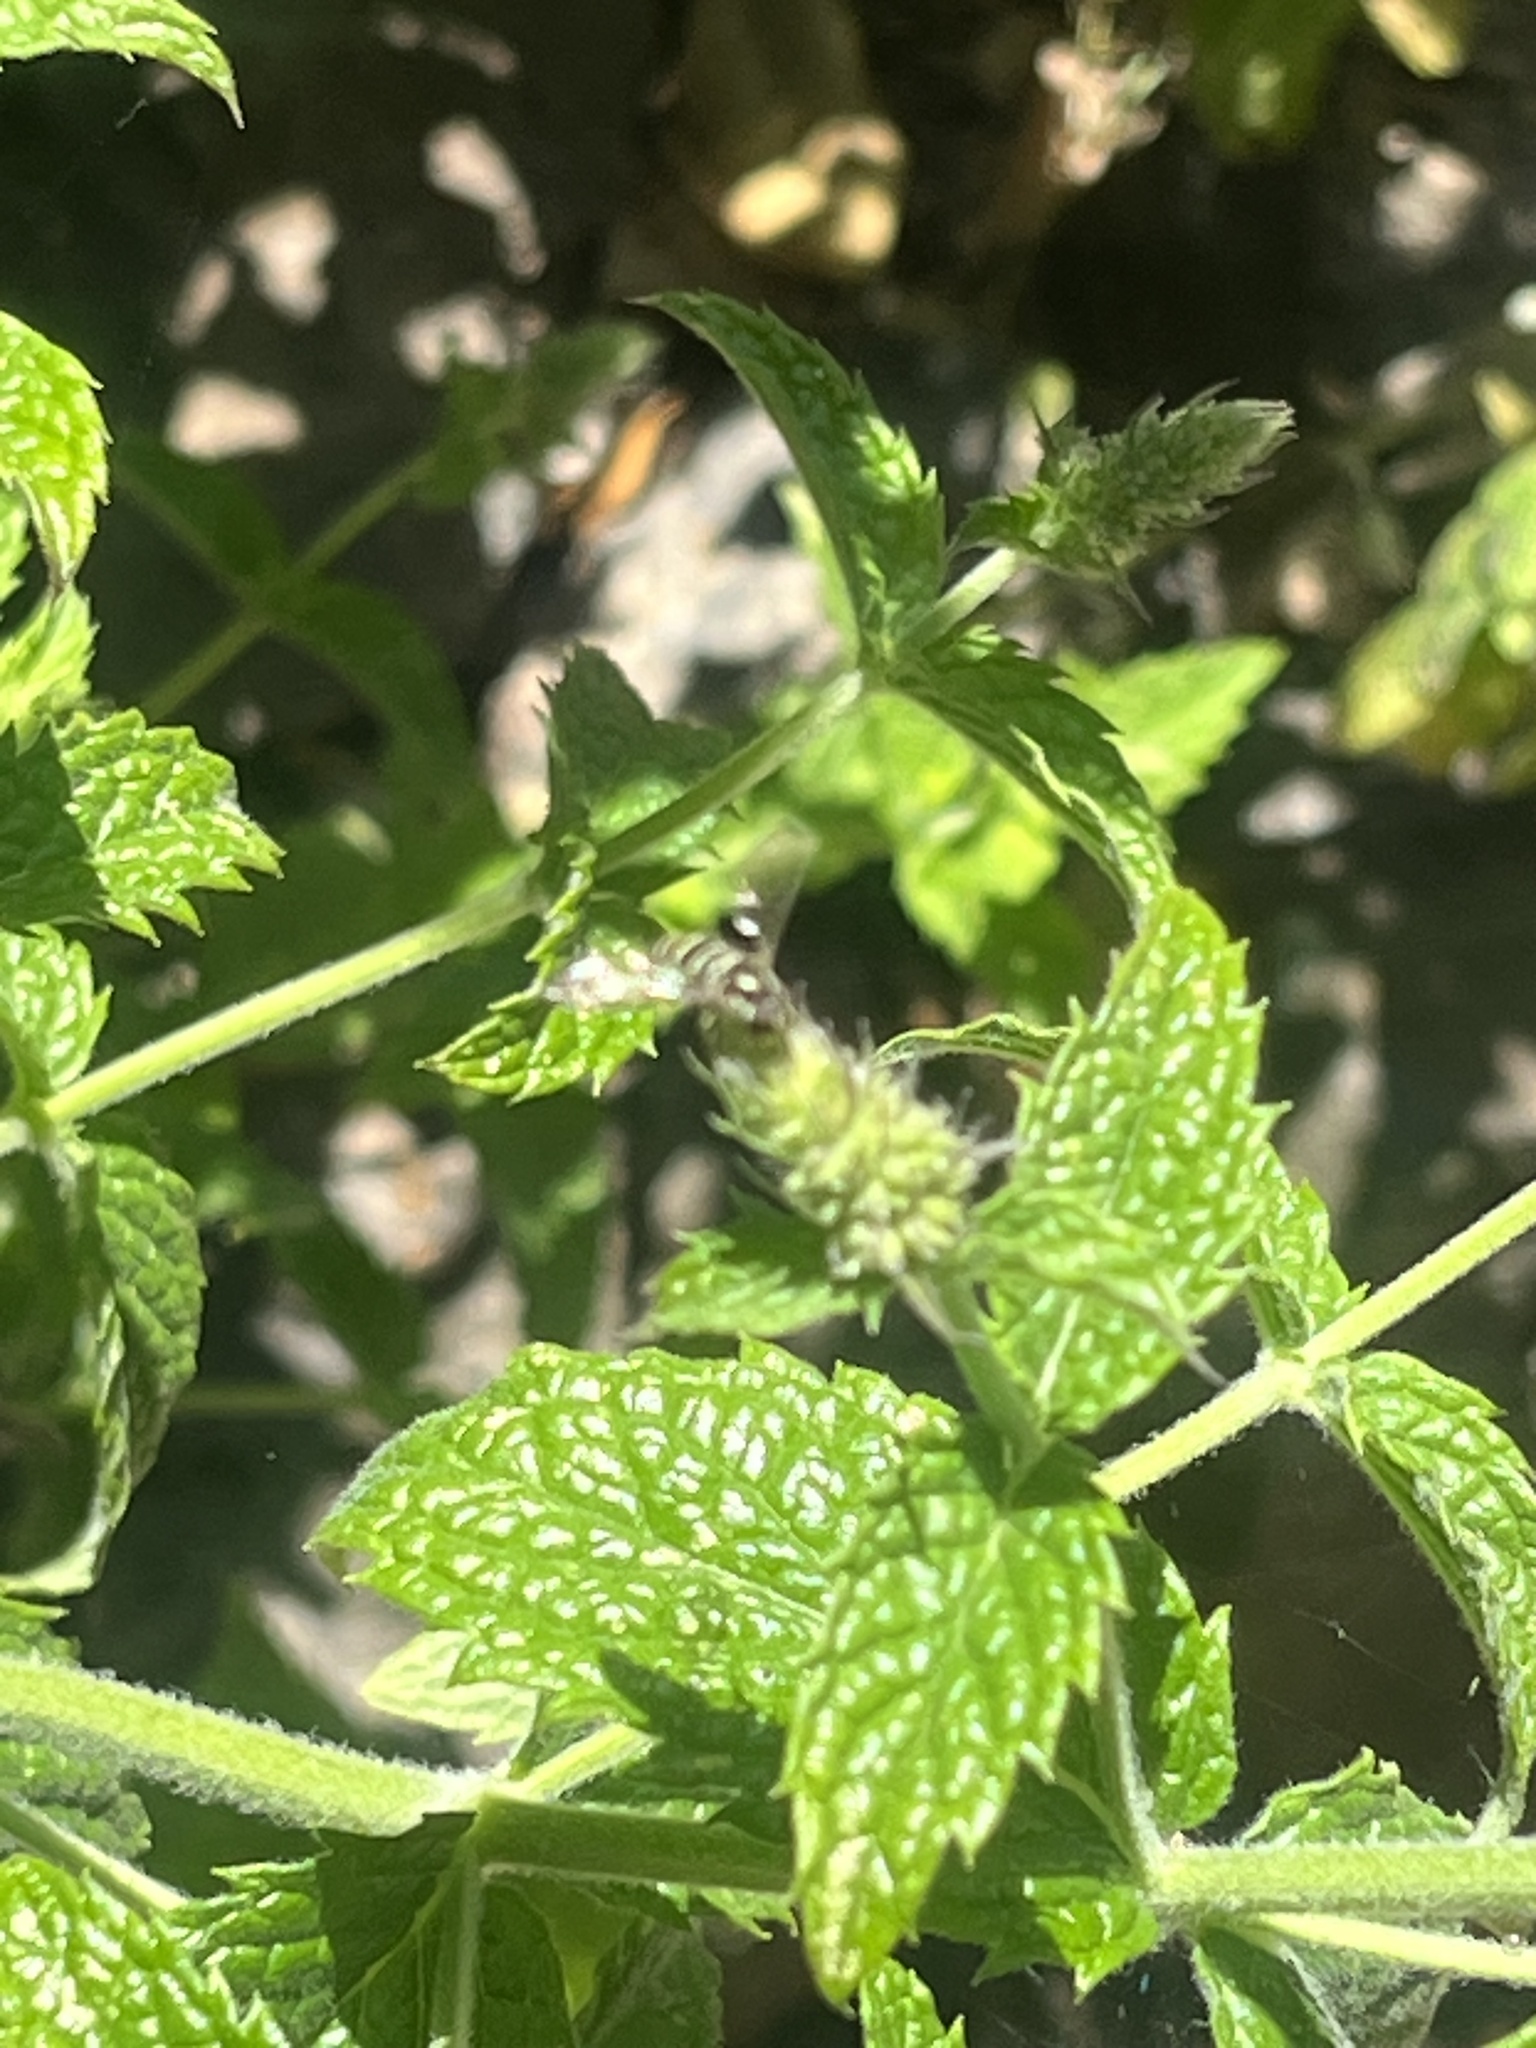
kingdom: Animalia
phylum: Arthropoda
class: Insecta
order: Diptera
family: Syrphidae
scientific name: Syrphidae
